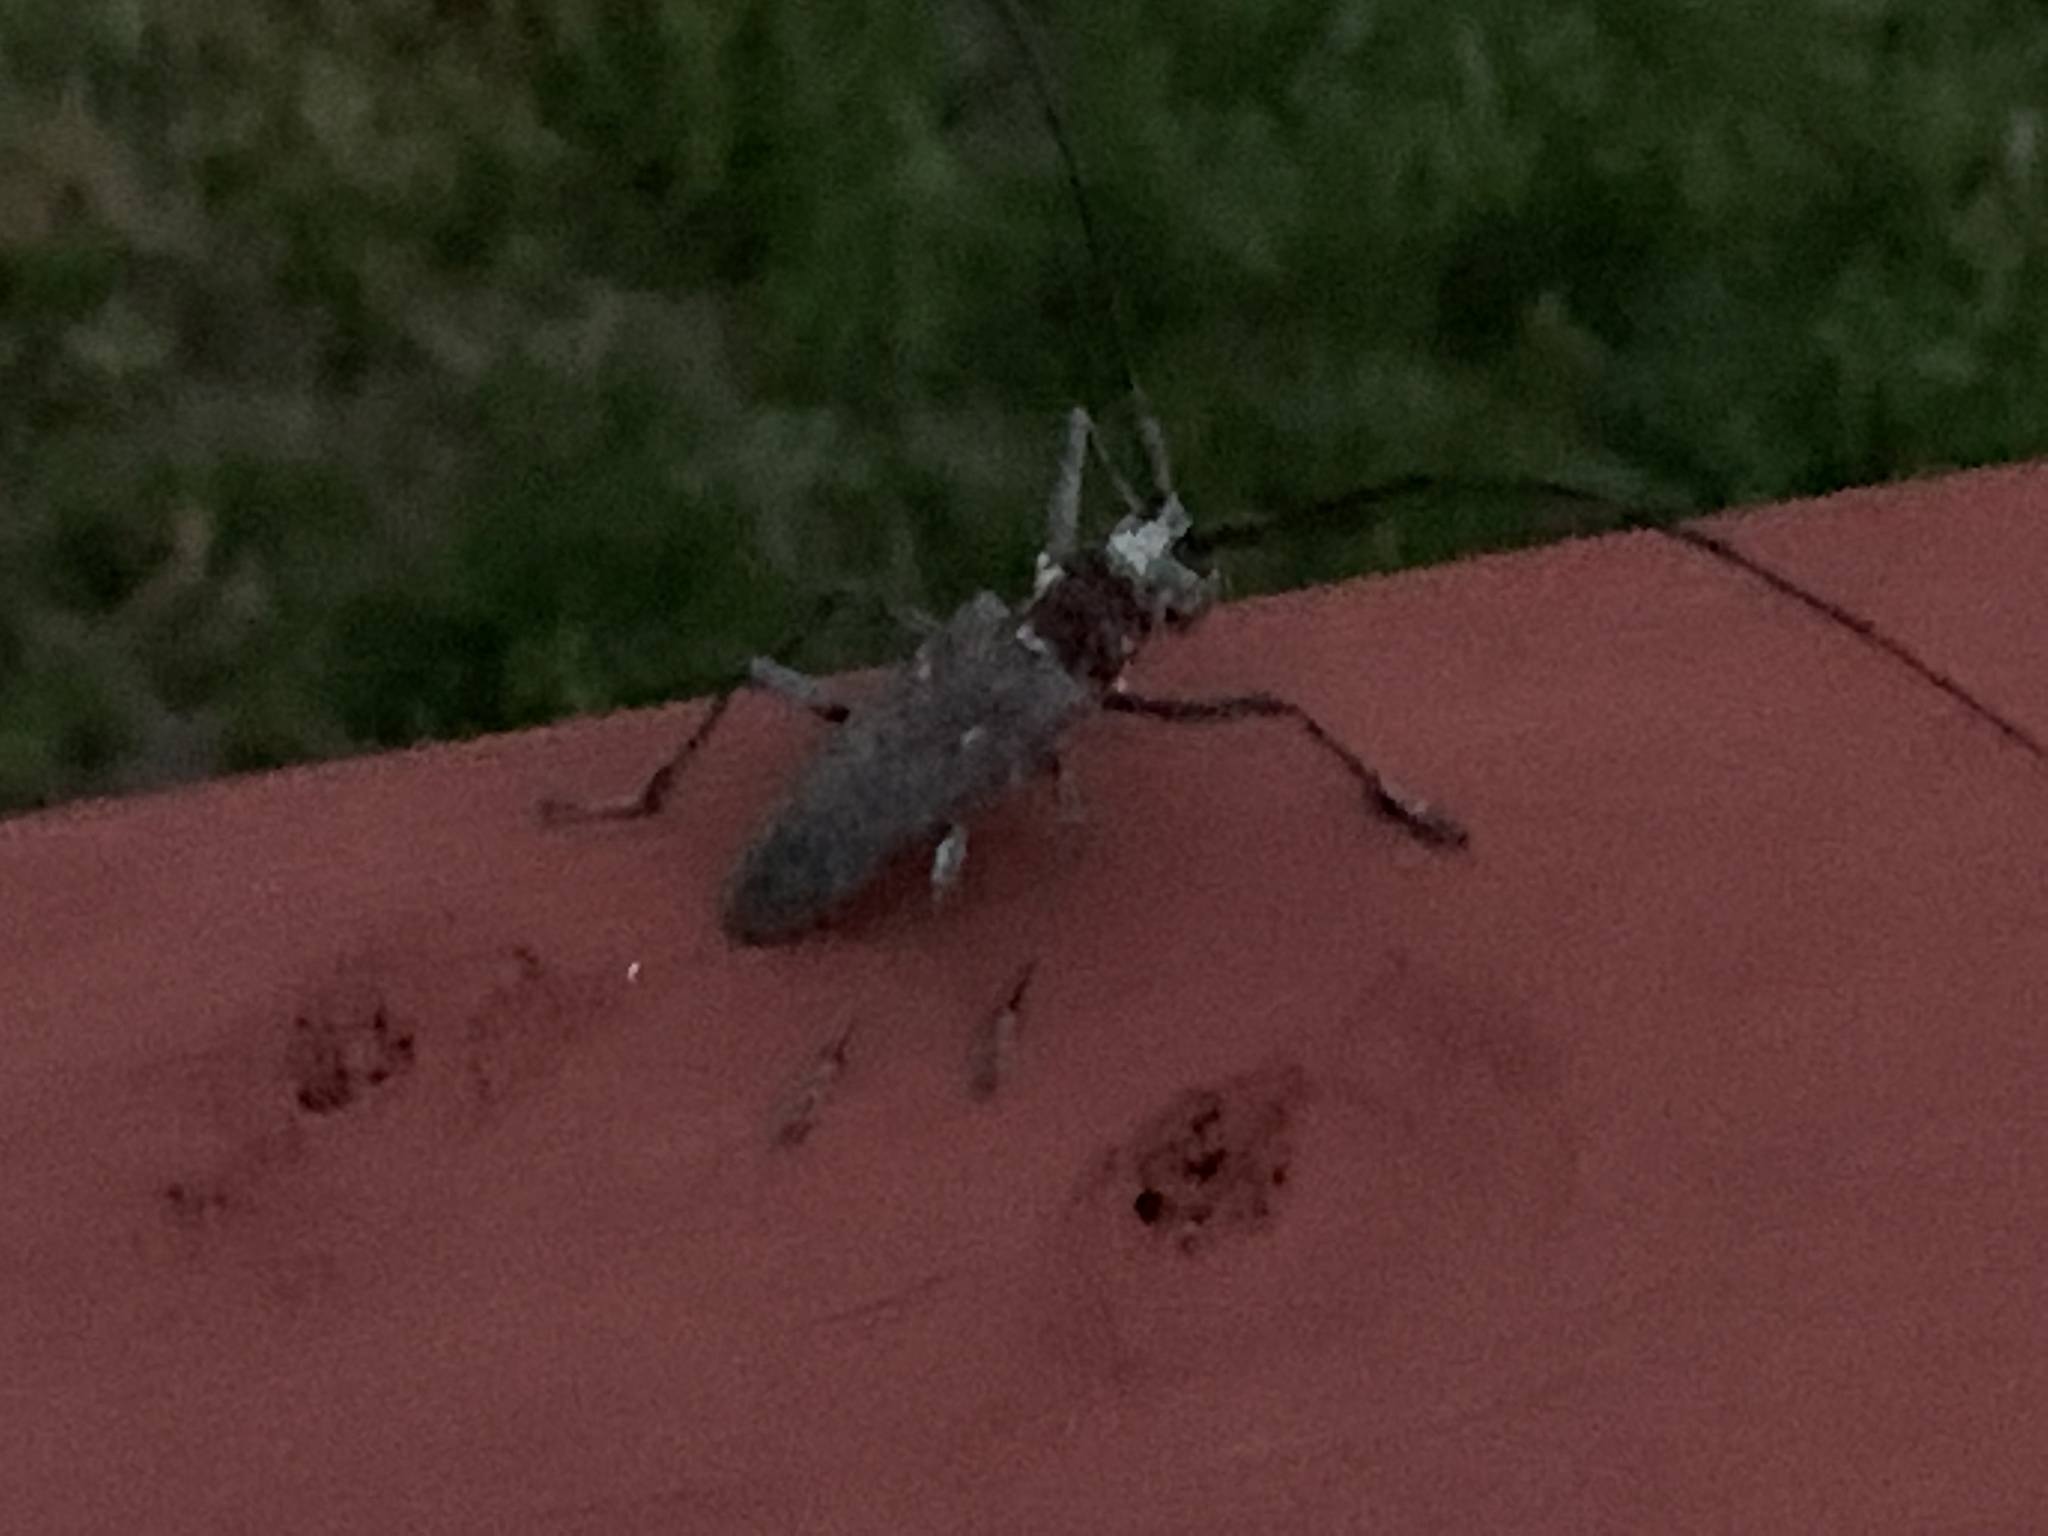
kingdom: Animalia
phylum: Arthropoda
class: Insecta
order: Coleoptera
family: Cerambycidae
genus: Monochamus
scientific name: Monochamus notatus
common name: Northeastern pine sawyer beetle
